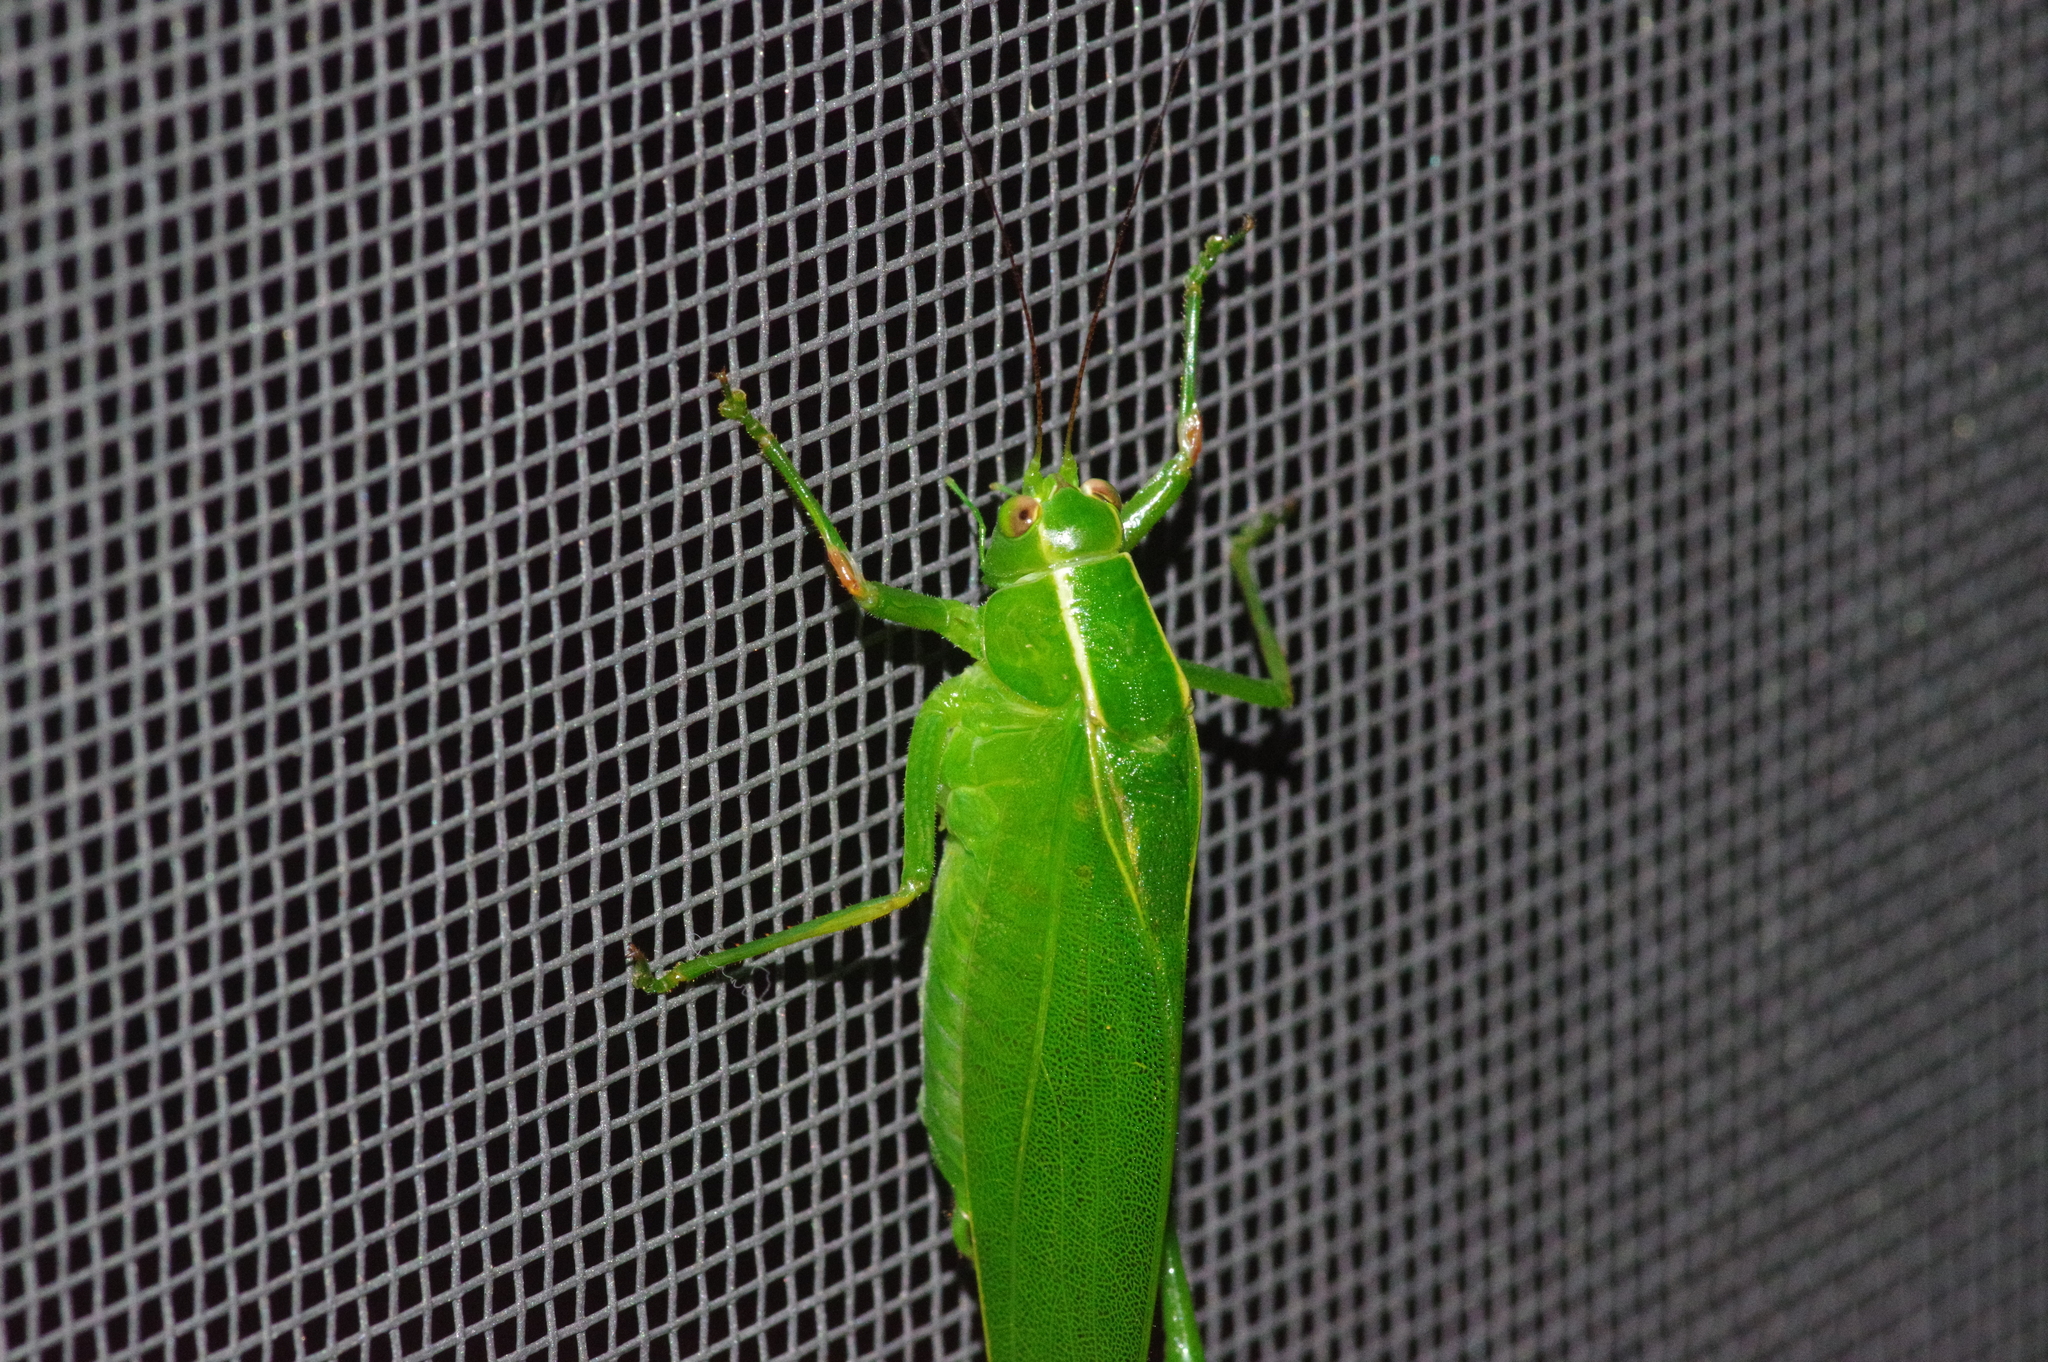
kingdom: Animalia
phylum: Arthropoda
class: Insecta
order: Orthoptera
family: Tettigoniidae
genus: Isopsera
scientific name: Isopsera denticulata
